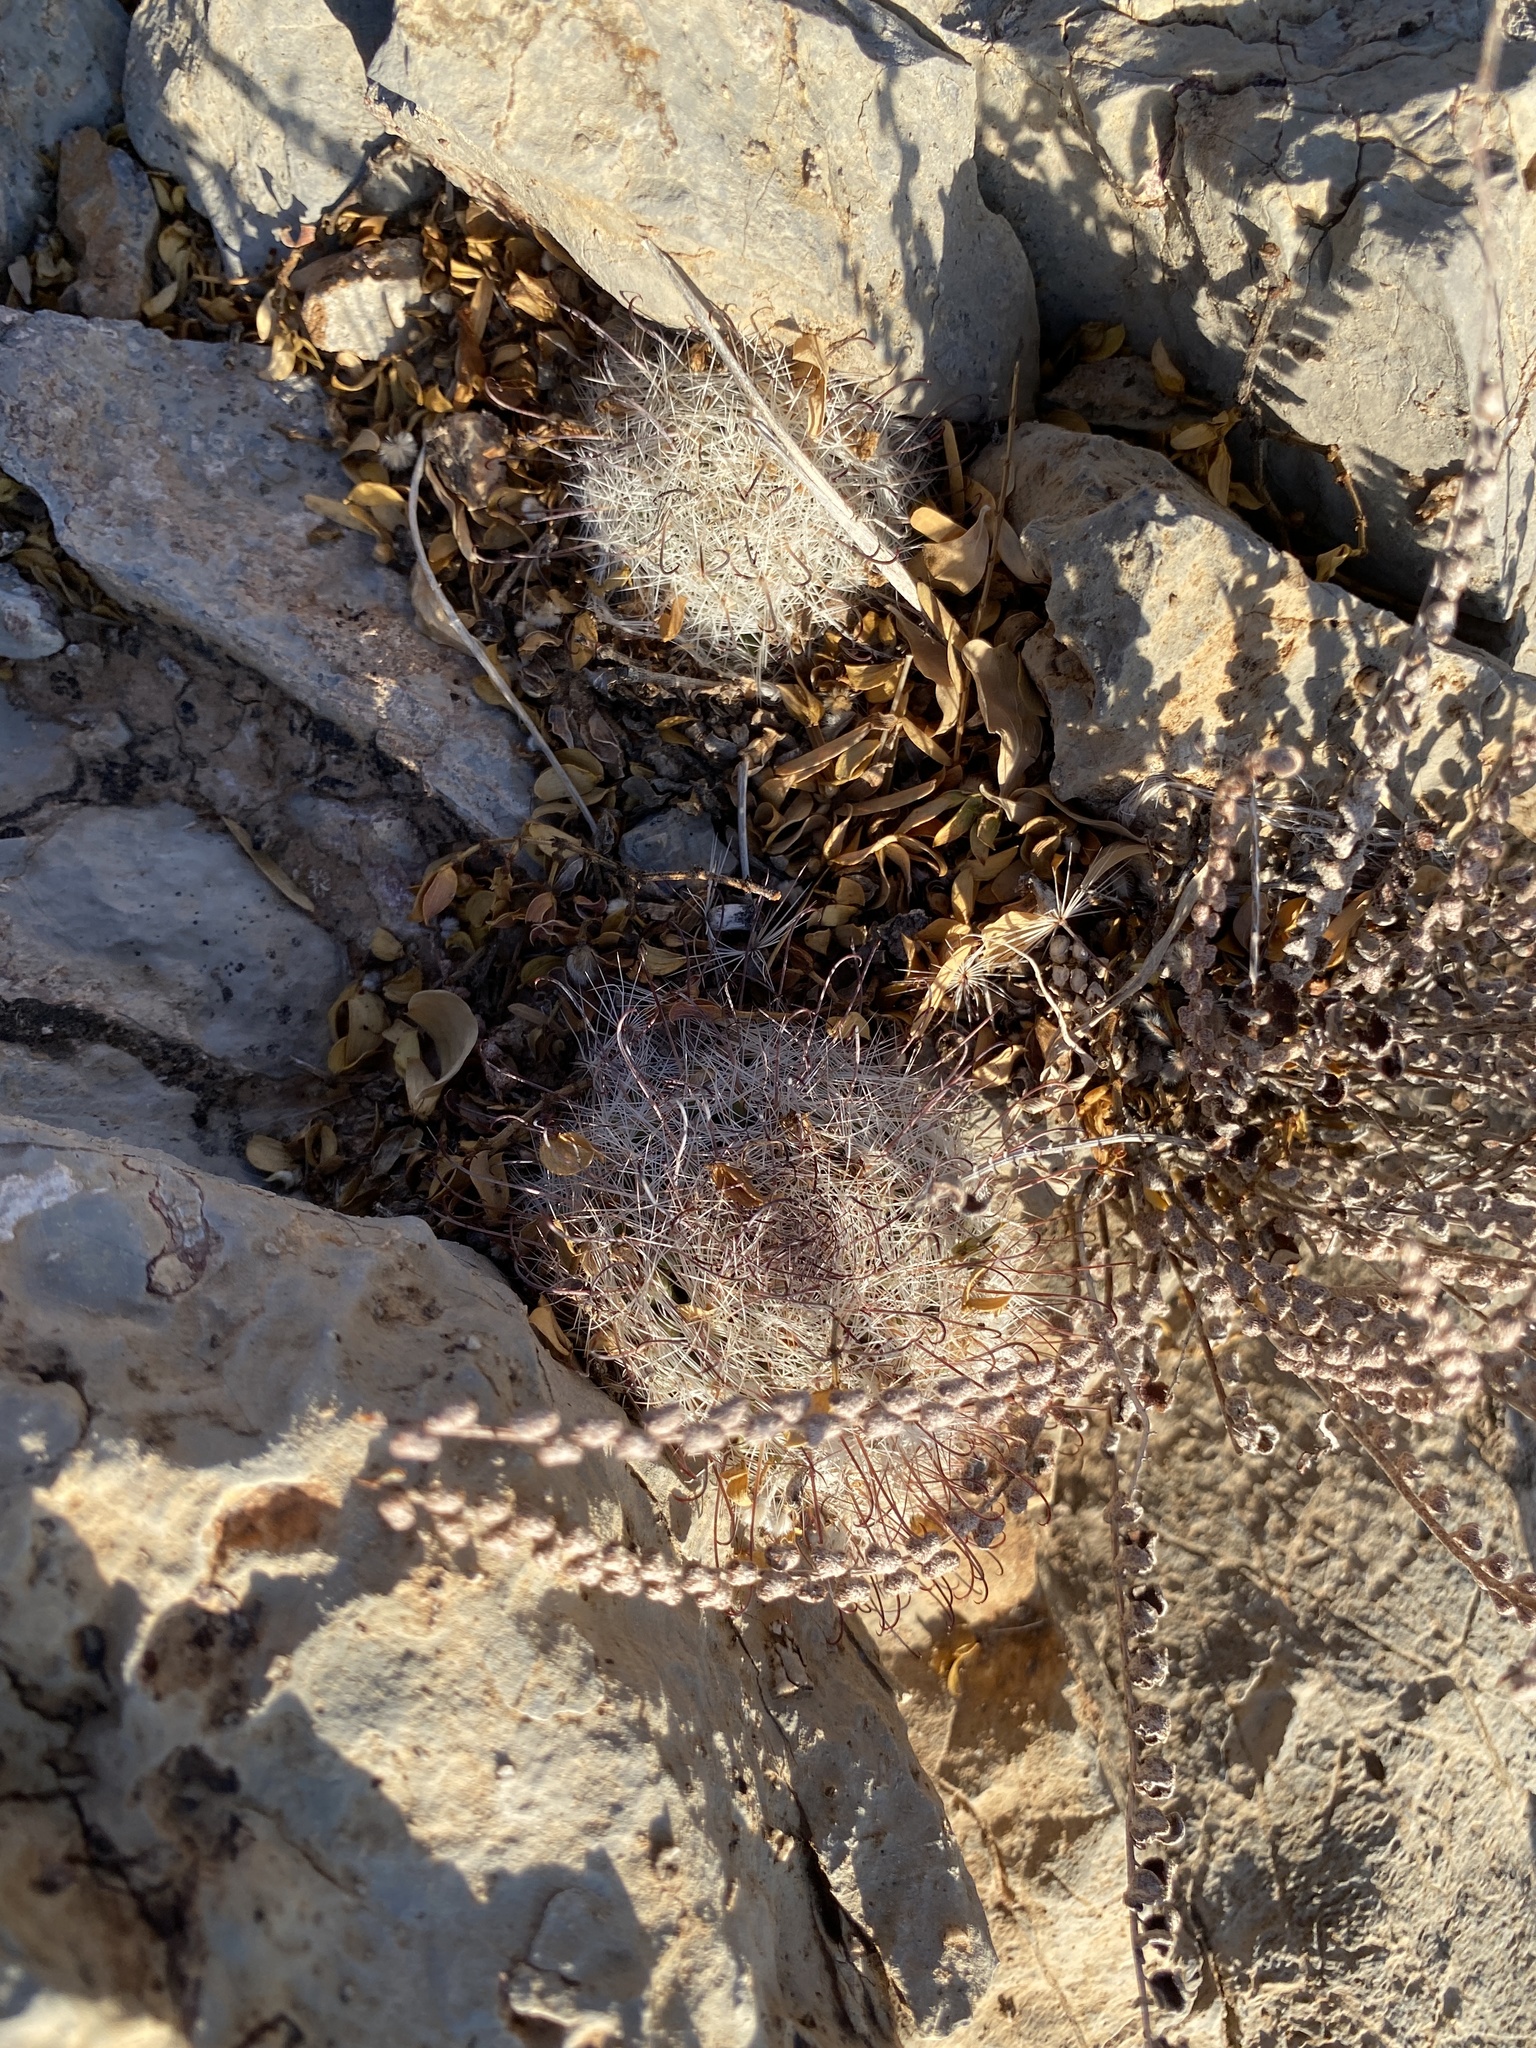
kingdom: Plantae
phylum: Tracheophyta
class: Magnoliopsida
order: Caryophyllales
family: Cactaceae
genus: Cochemiea
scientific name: Cochemiea grahamii
